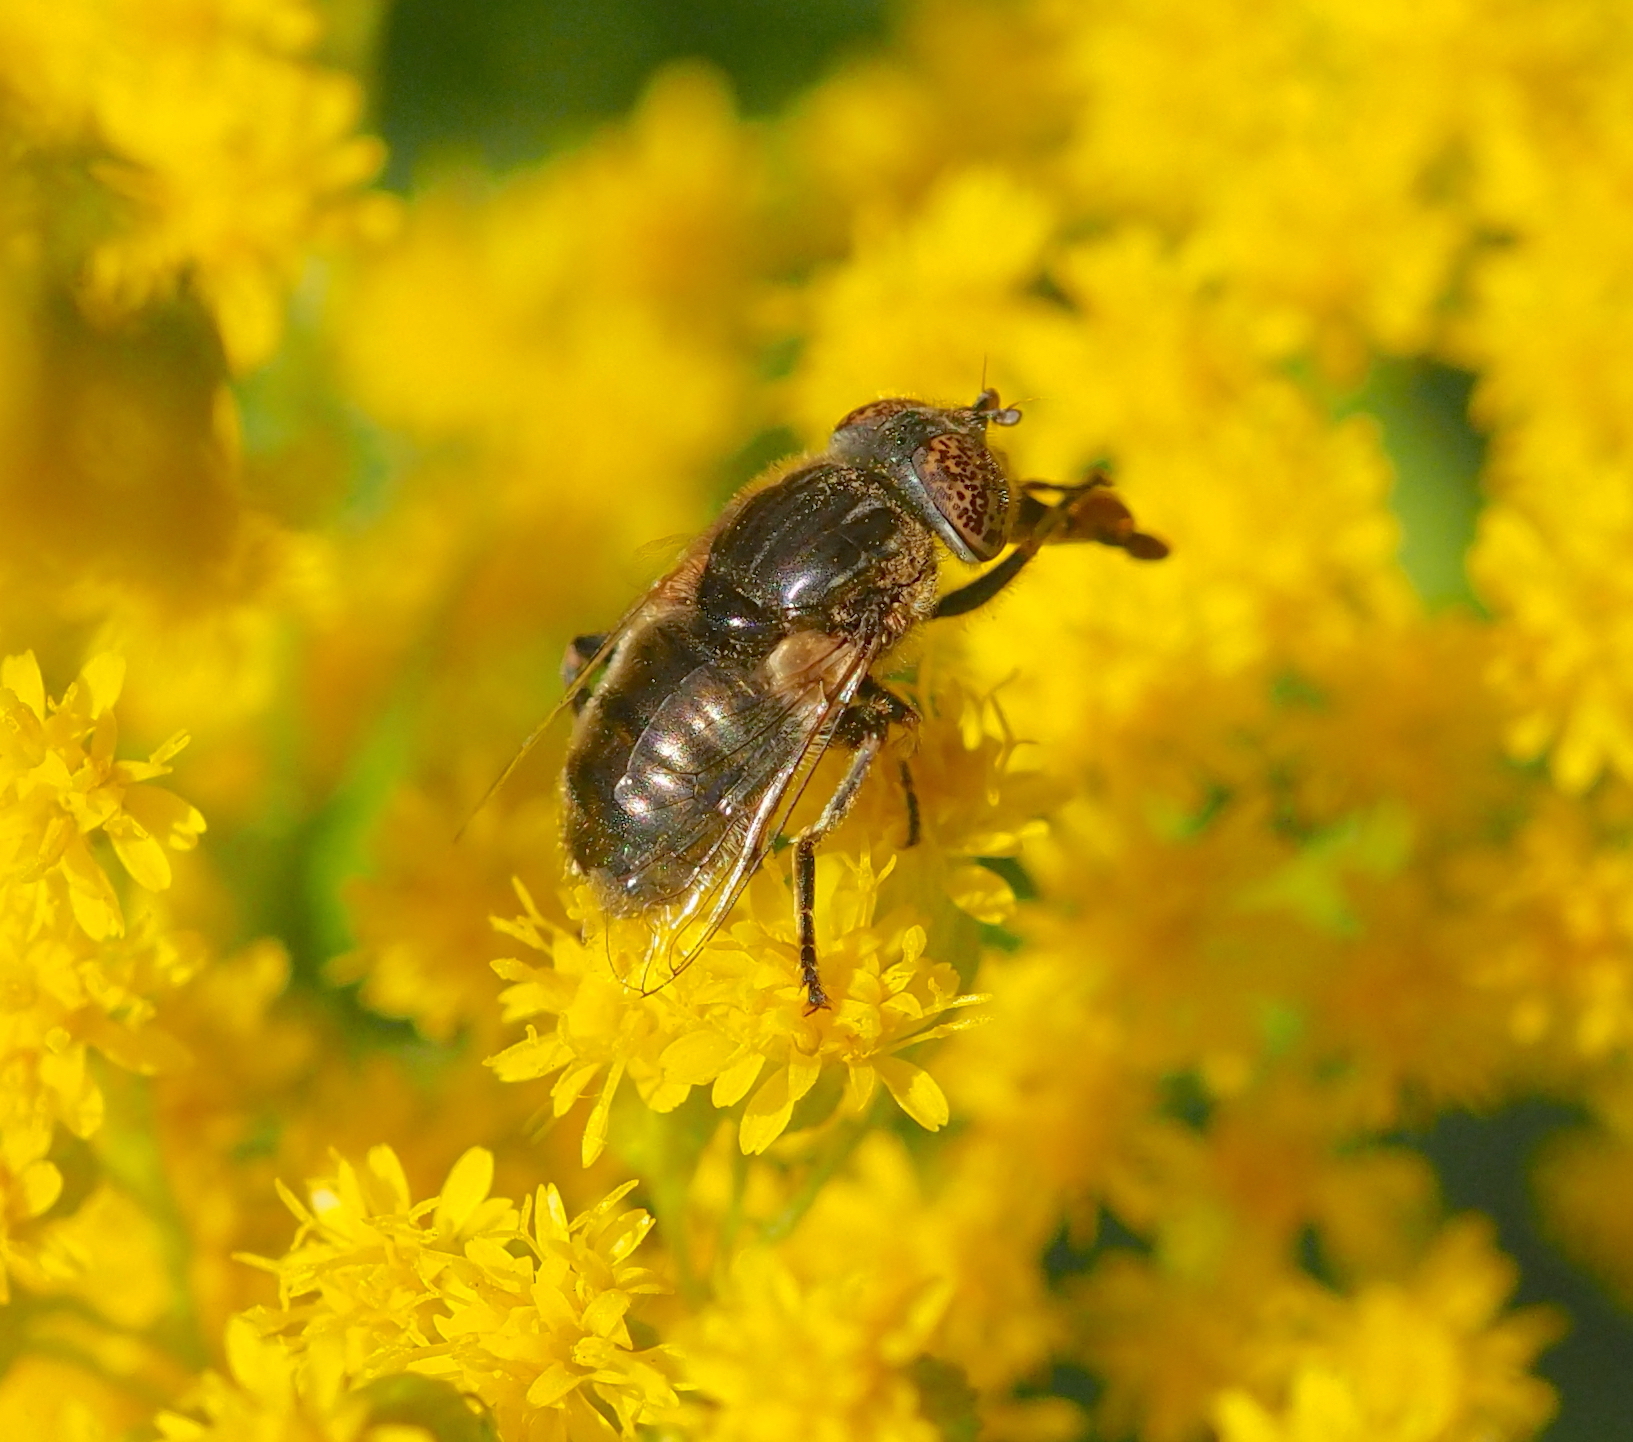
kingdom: Animalia
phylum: Arthropoda
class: Insecta
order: Diptera
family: Syrphidae
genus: Eristalinus
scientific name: Eristalinus sepulchralis
